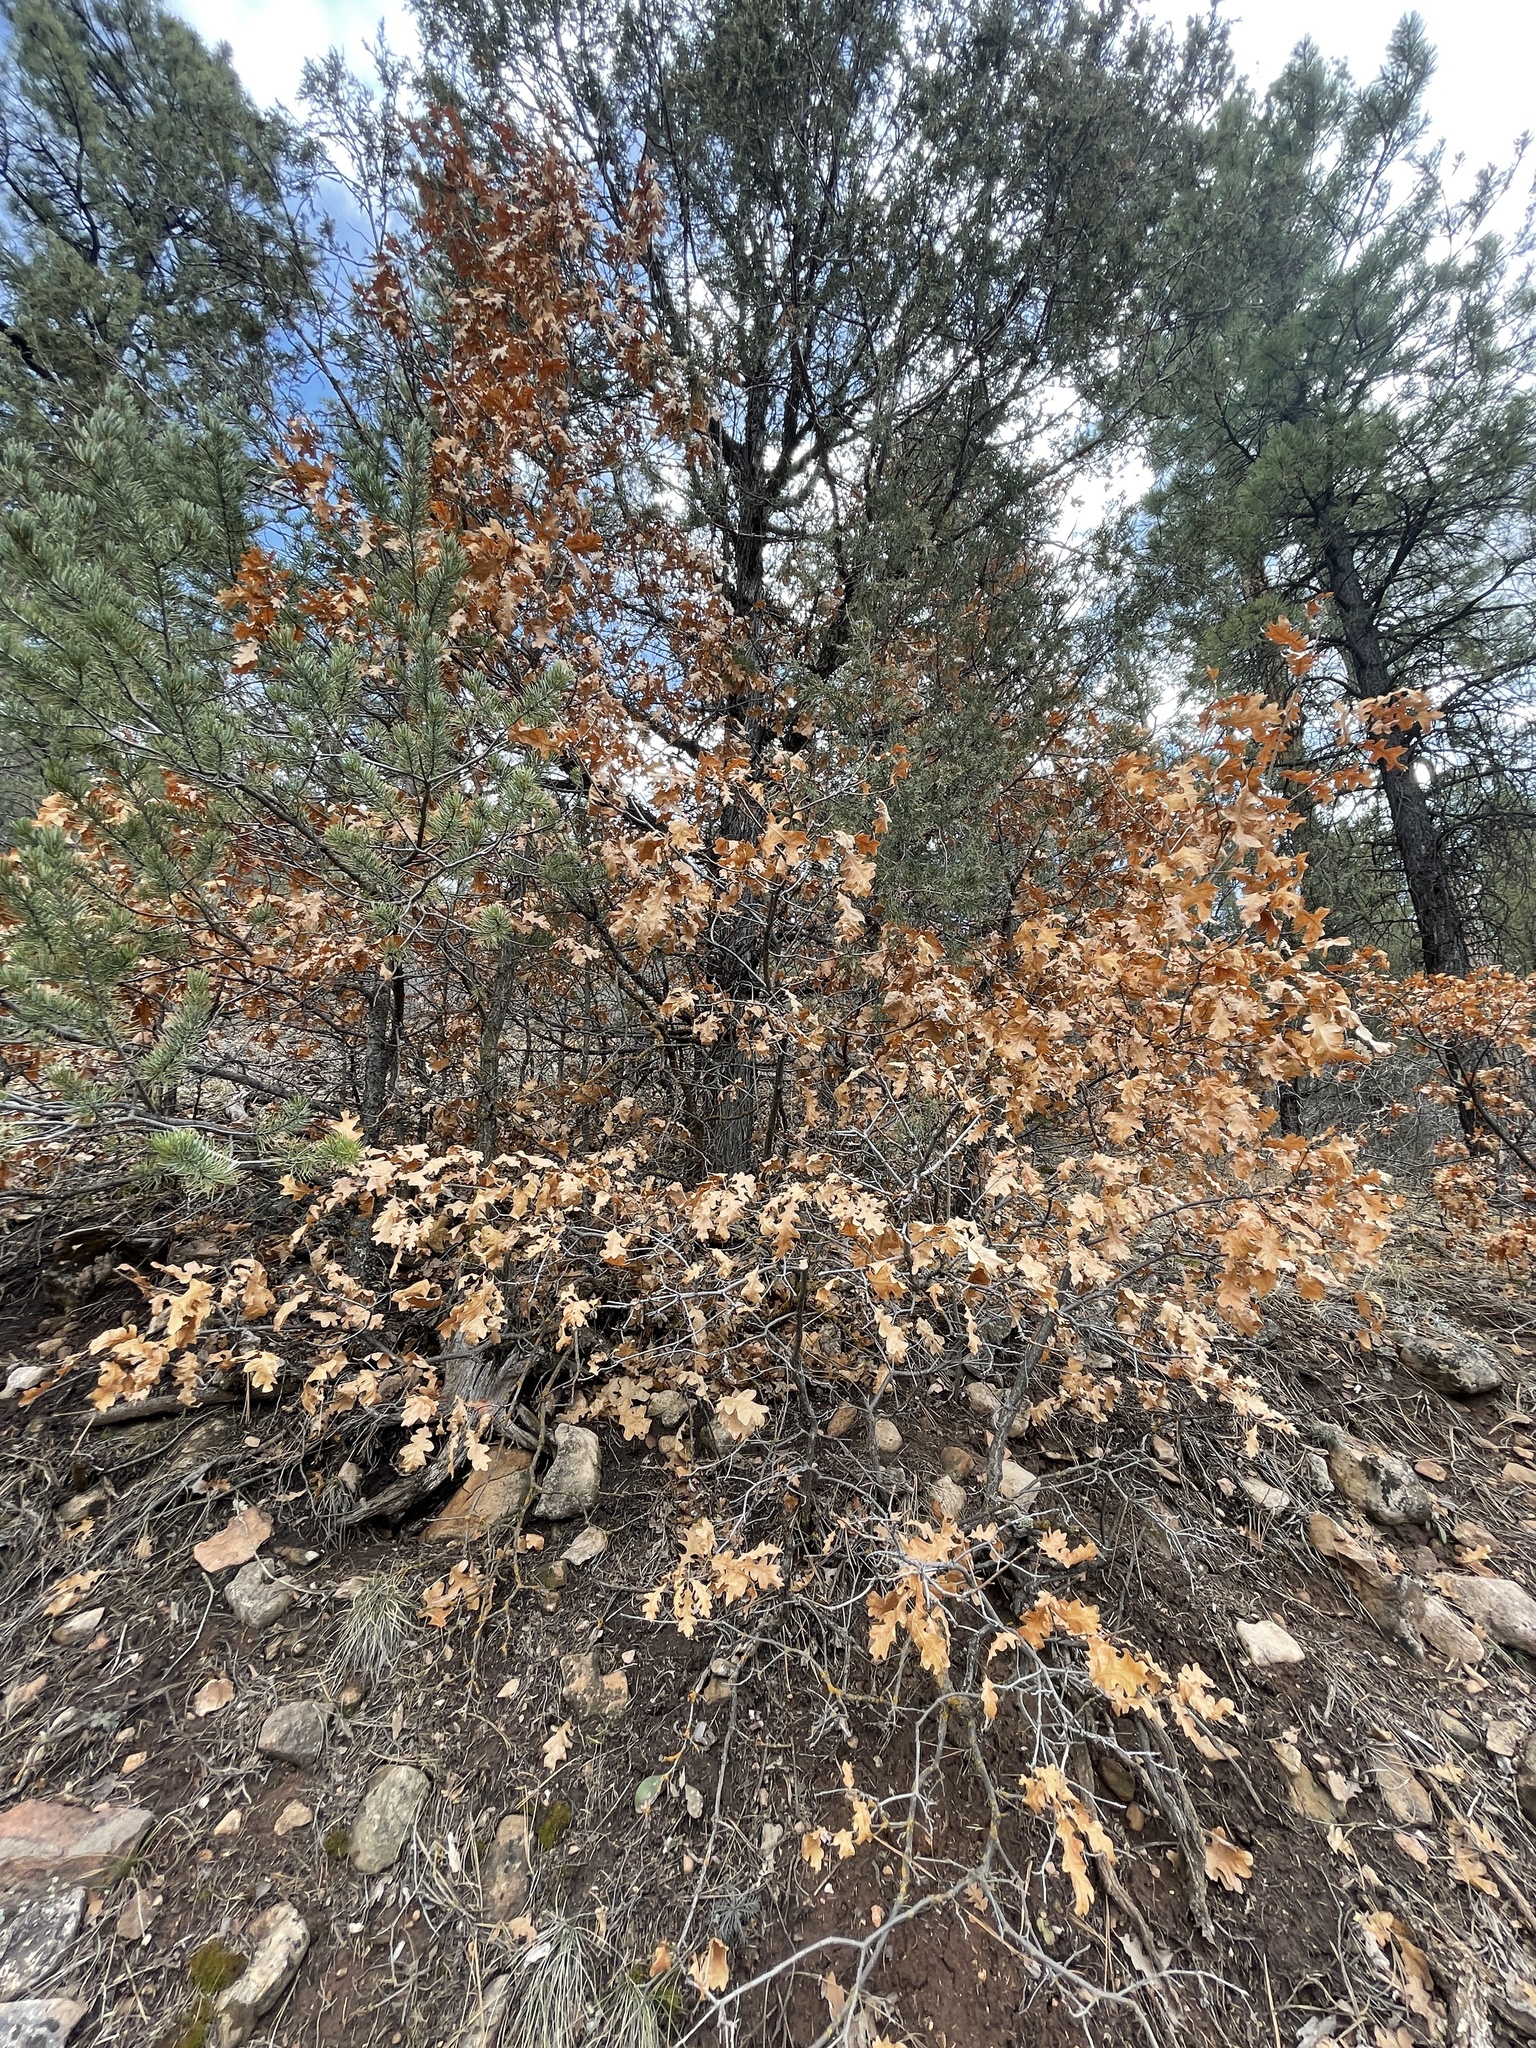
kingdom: Plantae
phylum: Tracheophyta
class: Magnoliopsida
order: Fagales
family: Fagaceae
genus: Quercus
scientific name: Quercus gambelii
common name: Gambel oak
